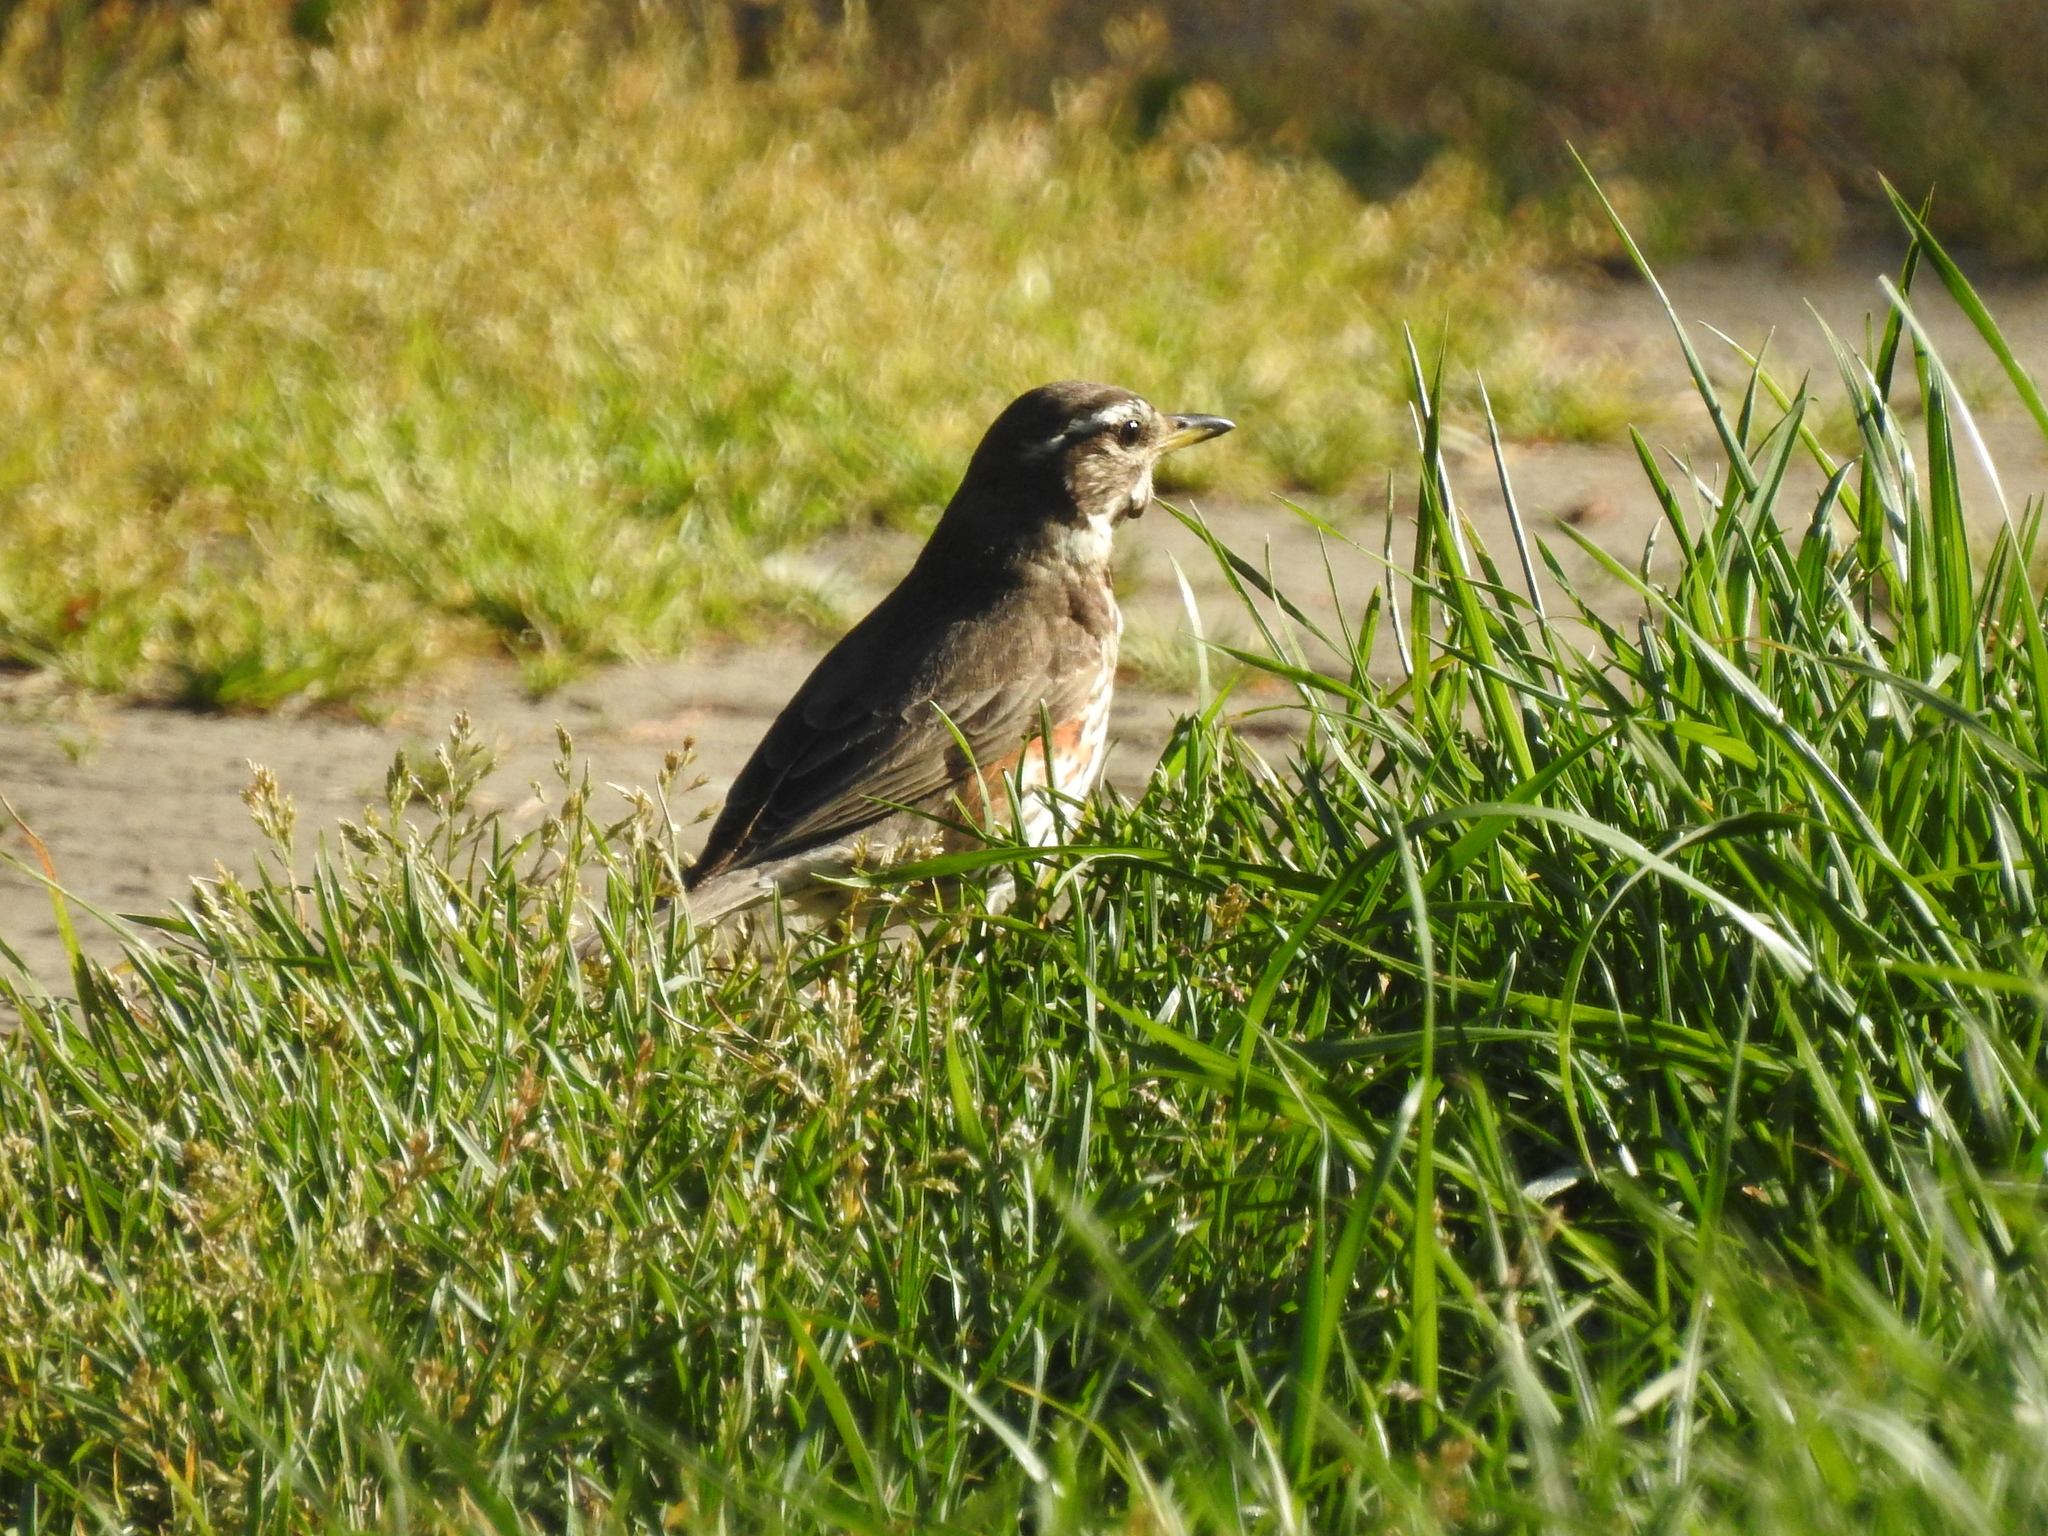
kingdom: Animalia
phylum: Chordata
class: Aves
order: Passeriformes
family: Turdidae
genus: Turdus
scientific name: Turdus iliacus
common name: Redwing
